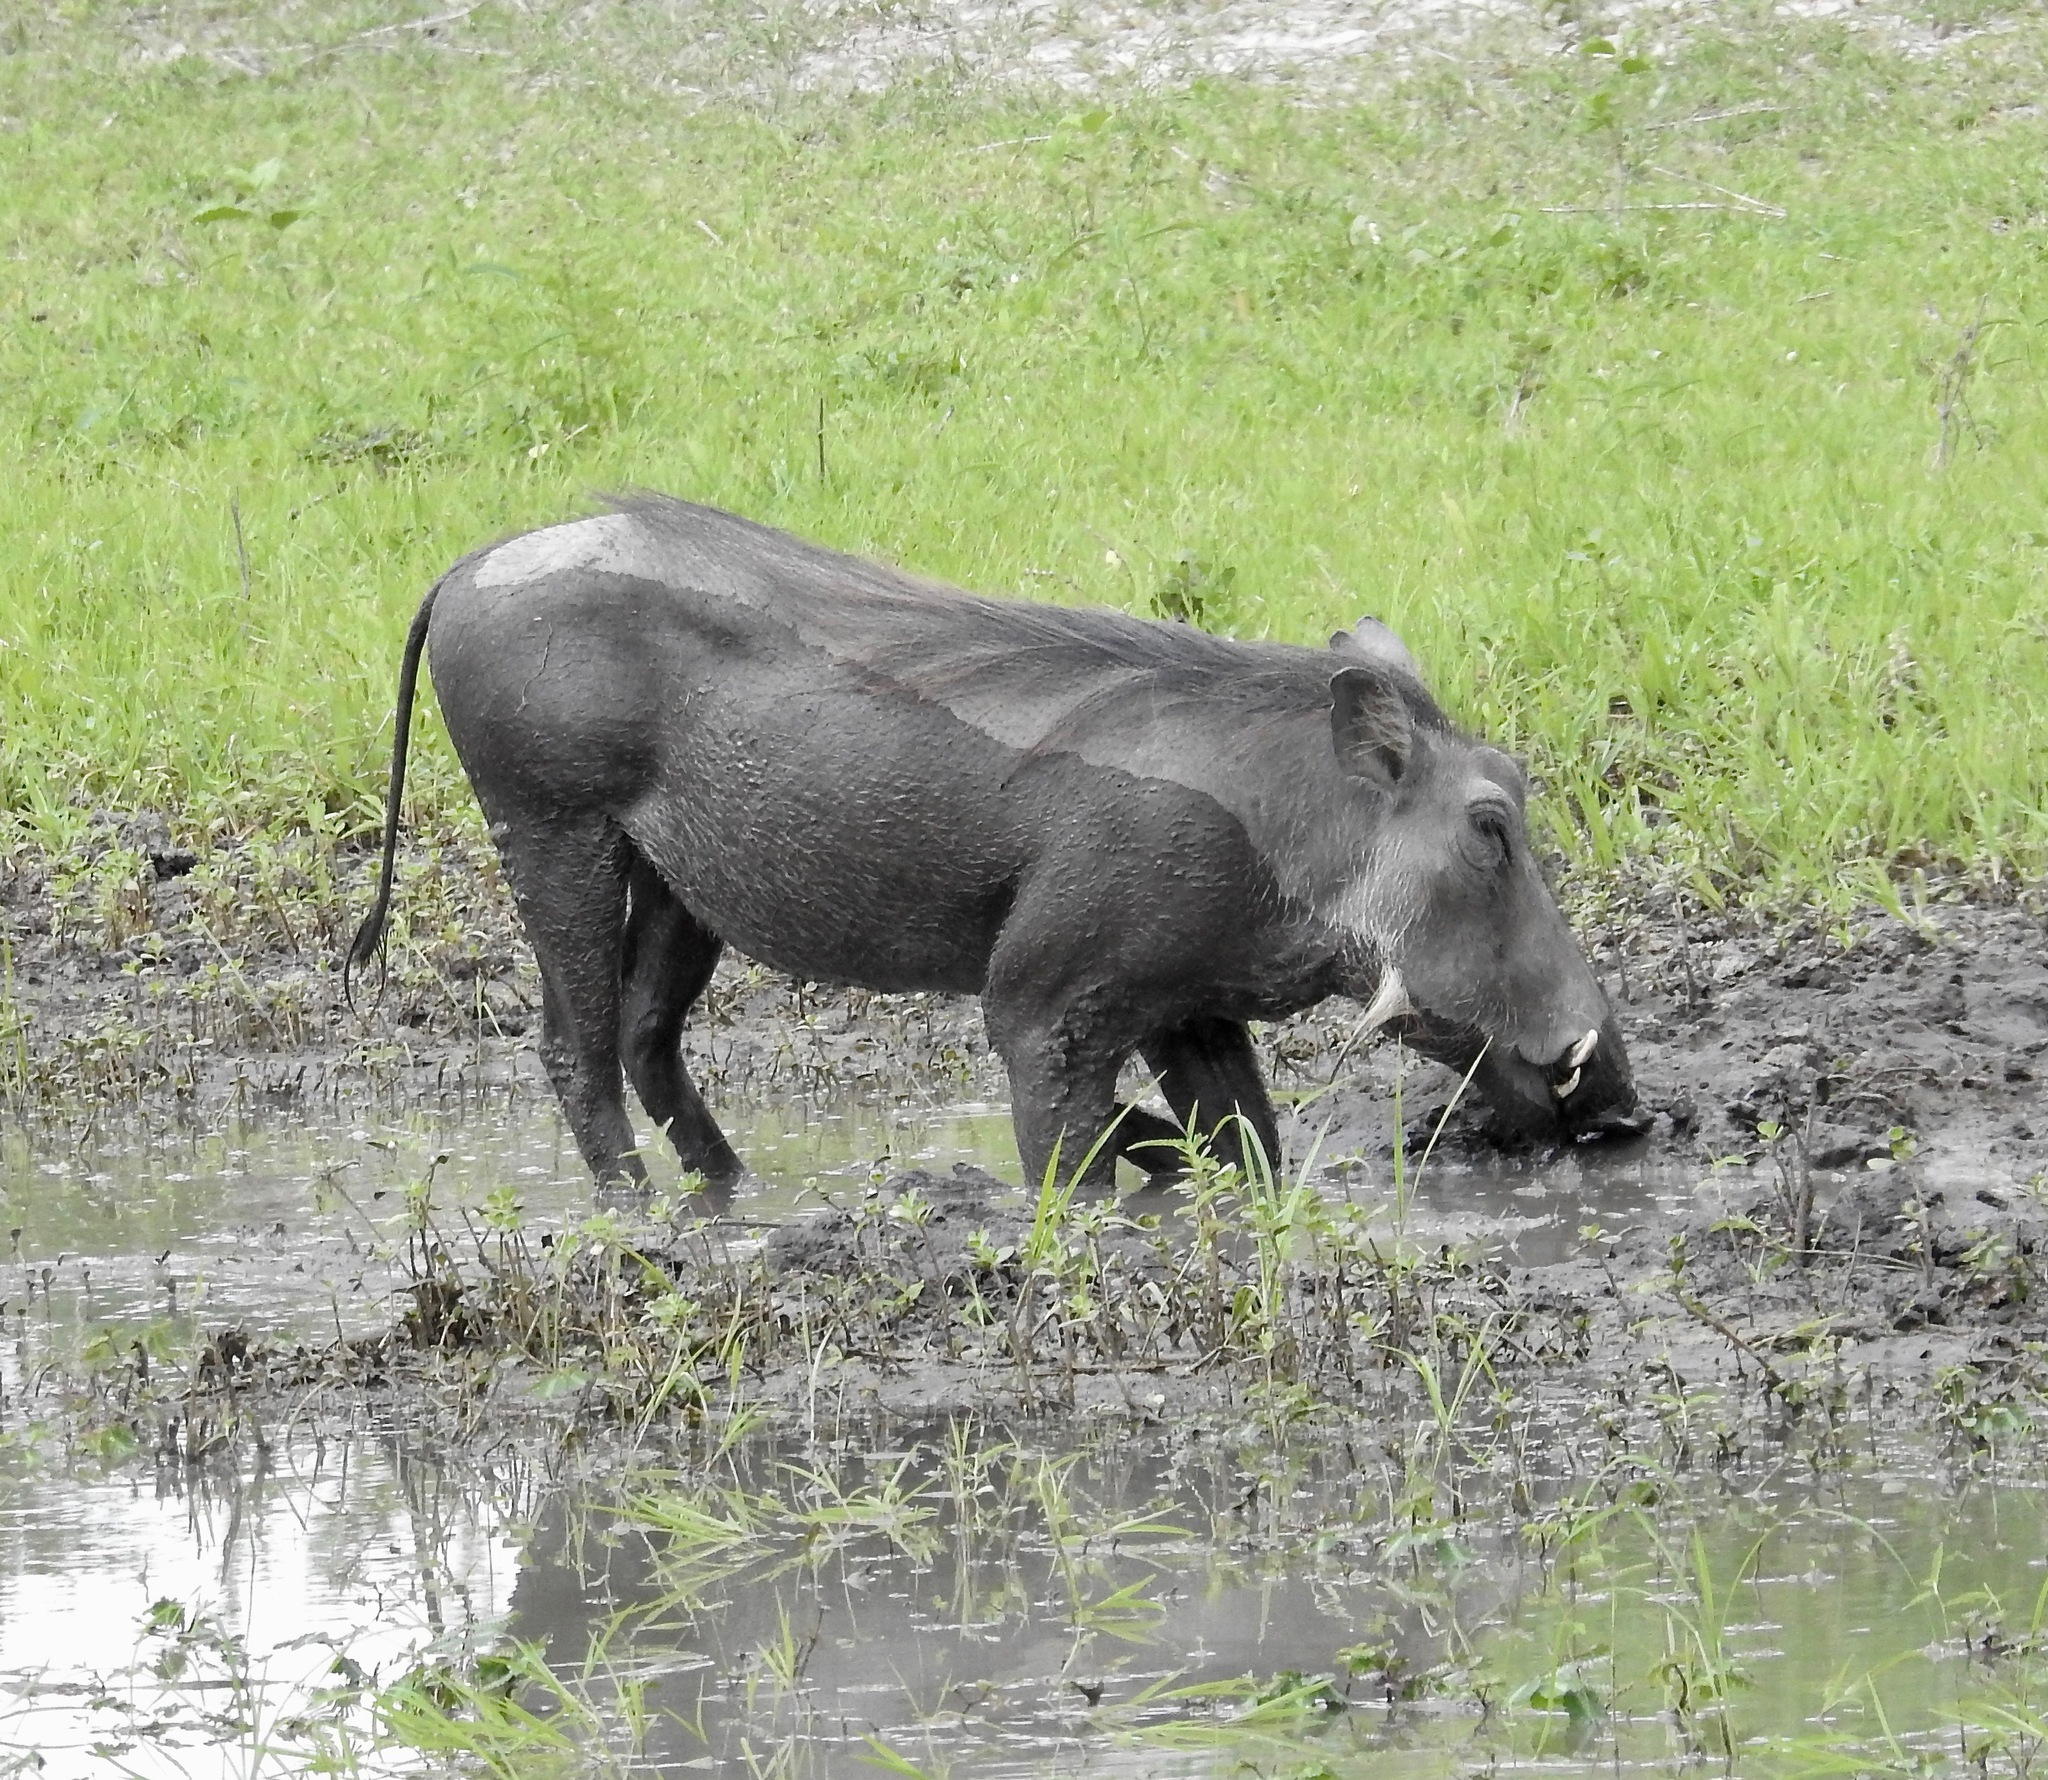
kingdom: Animalia
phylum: Chordata
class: Mammalia
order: Artiodactyla
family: Suidae
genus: Phacochoerus
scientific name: Phacochoerus africanus
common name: Common warthog
